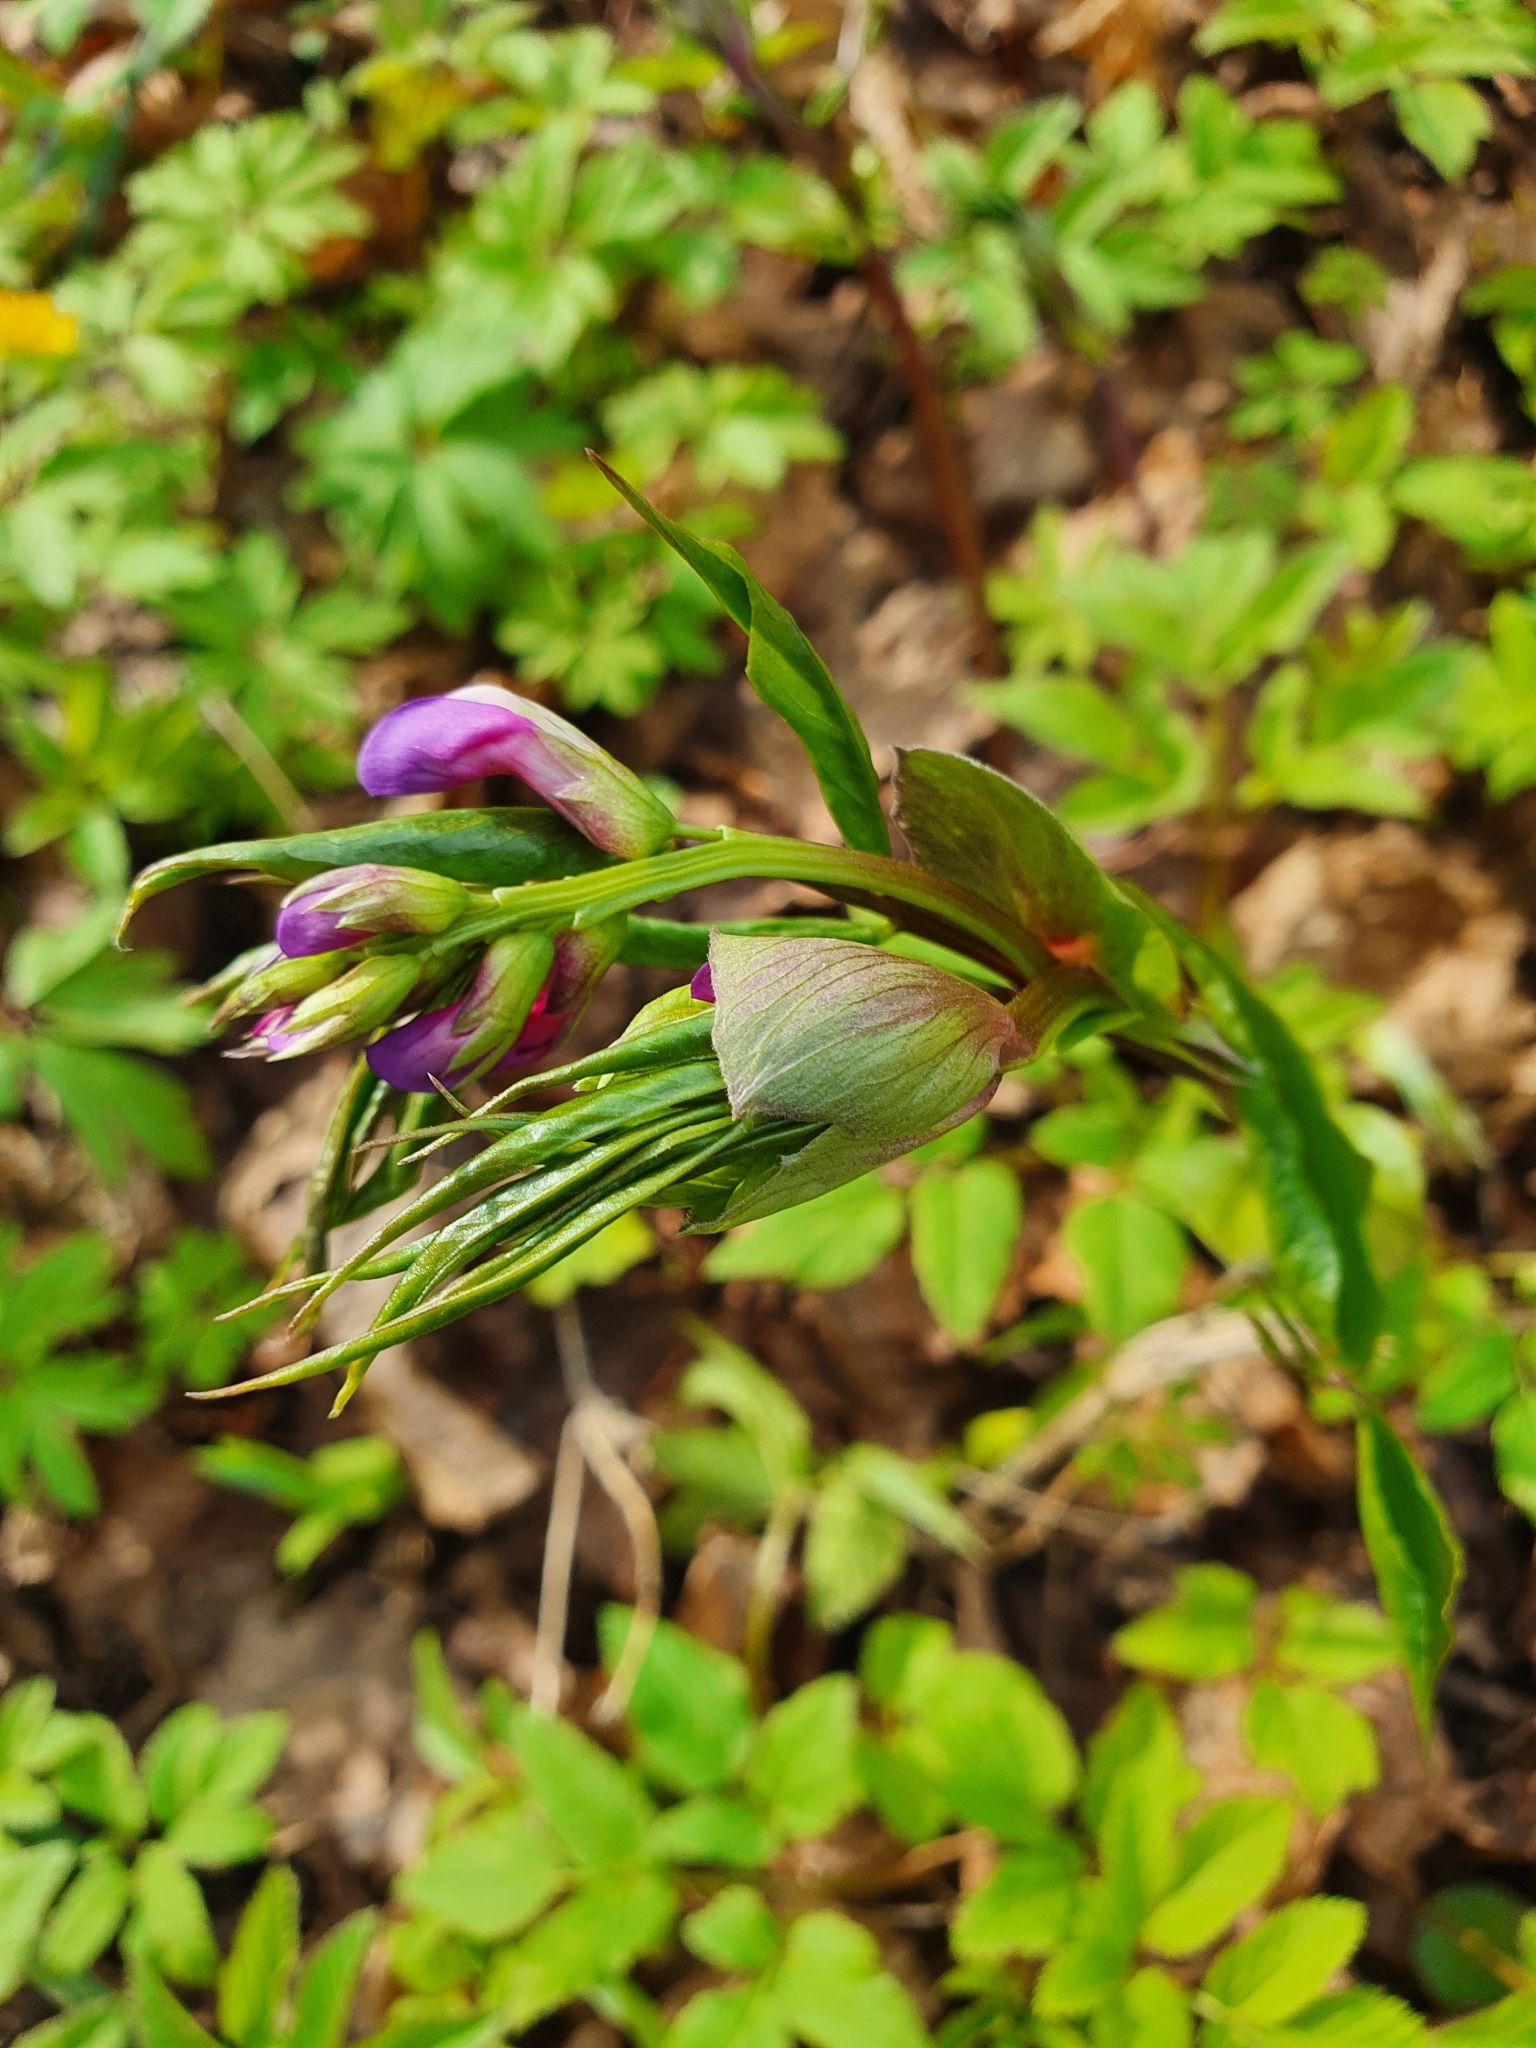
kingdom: Plantae
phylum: Tracheophyta
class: Magnoliopsida
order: Fabales
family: Fabaceae
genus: Lathyrus
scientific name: Lathyrus vernus
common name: Spring pea
